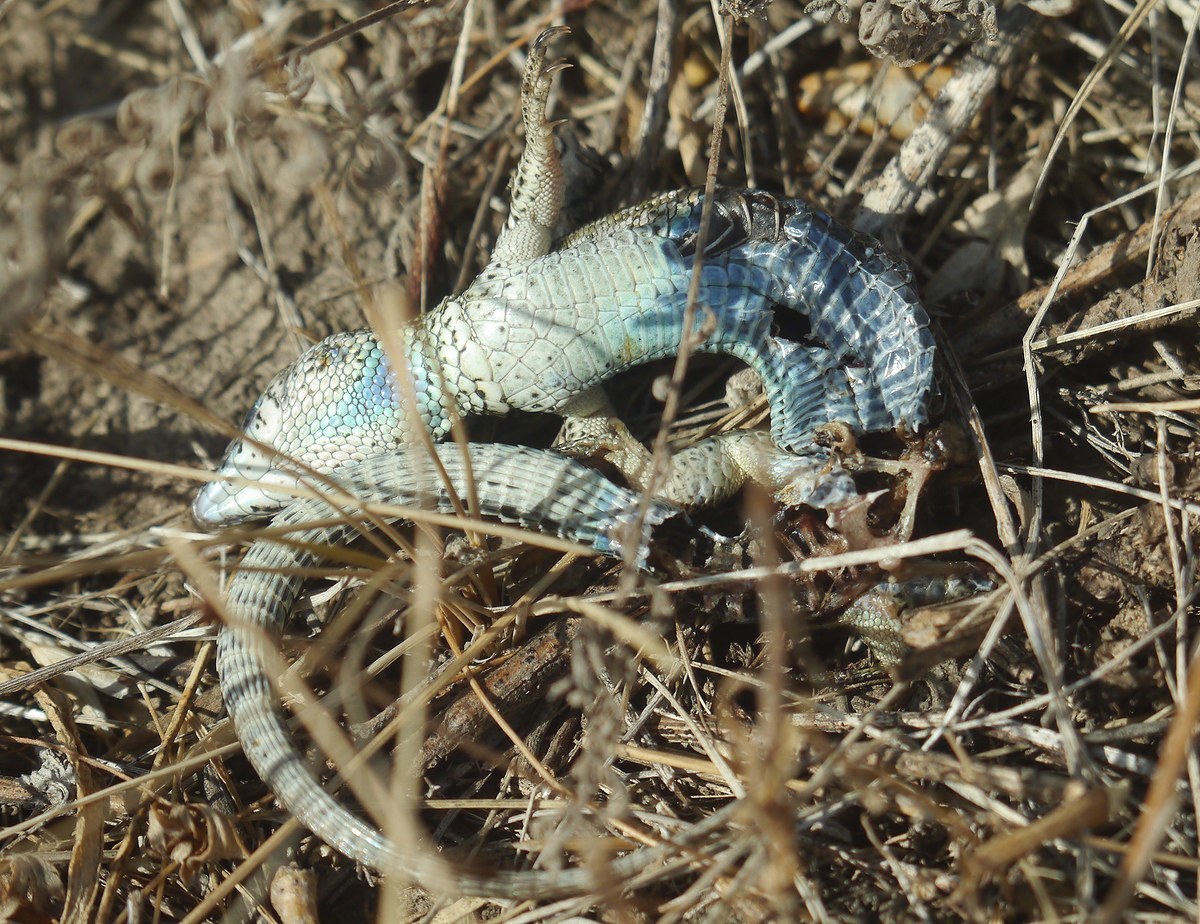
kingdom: Animalia
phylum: Chordata
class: Squamata
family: Lacertidae
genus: Lacerta
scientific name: Lacerta agilis
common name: Sand lizard
